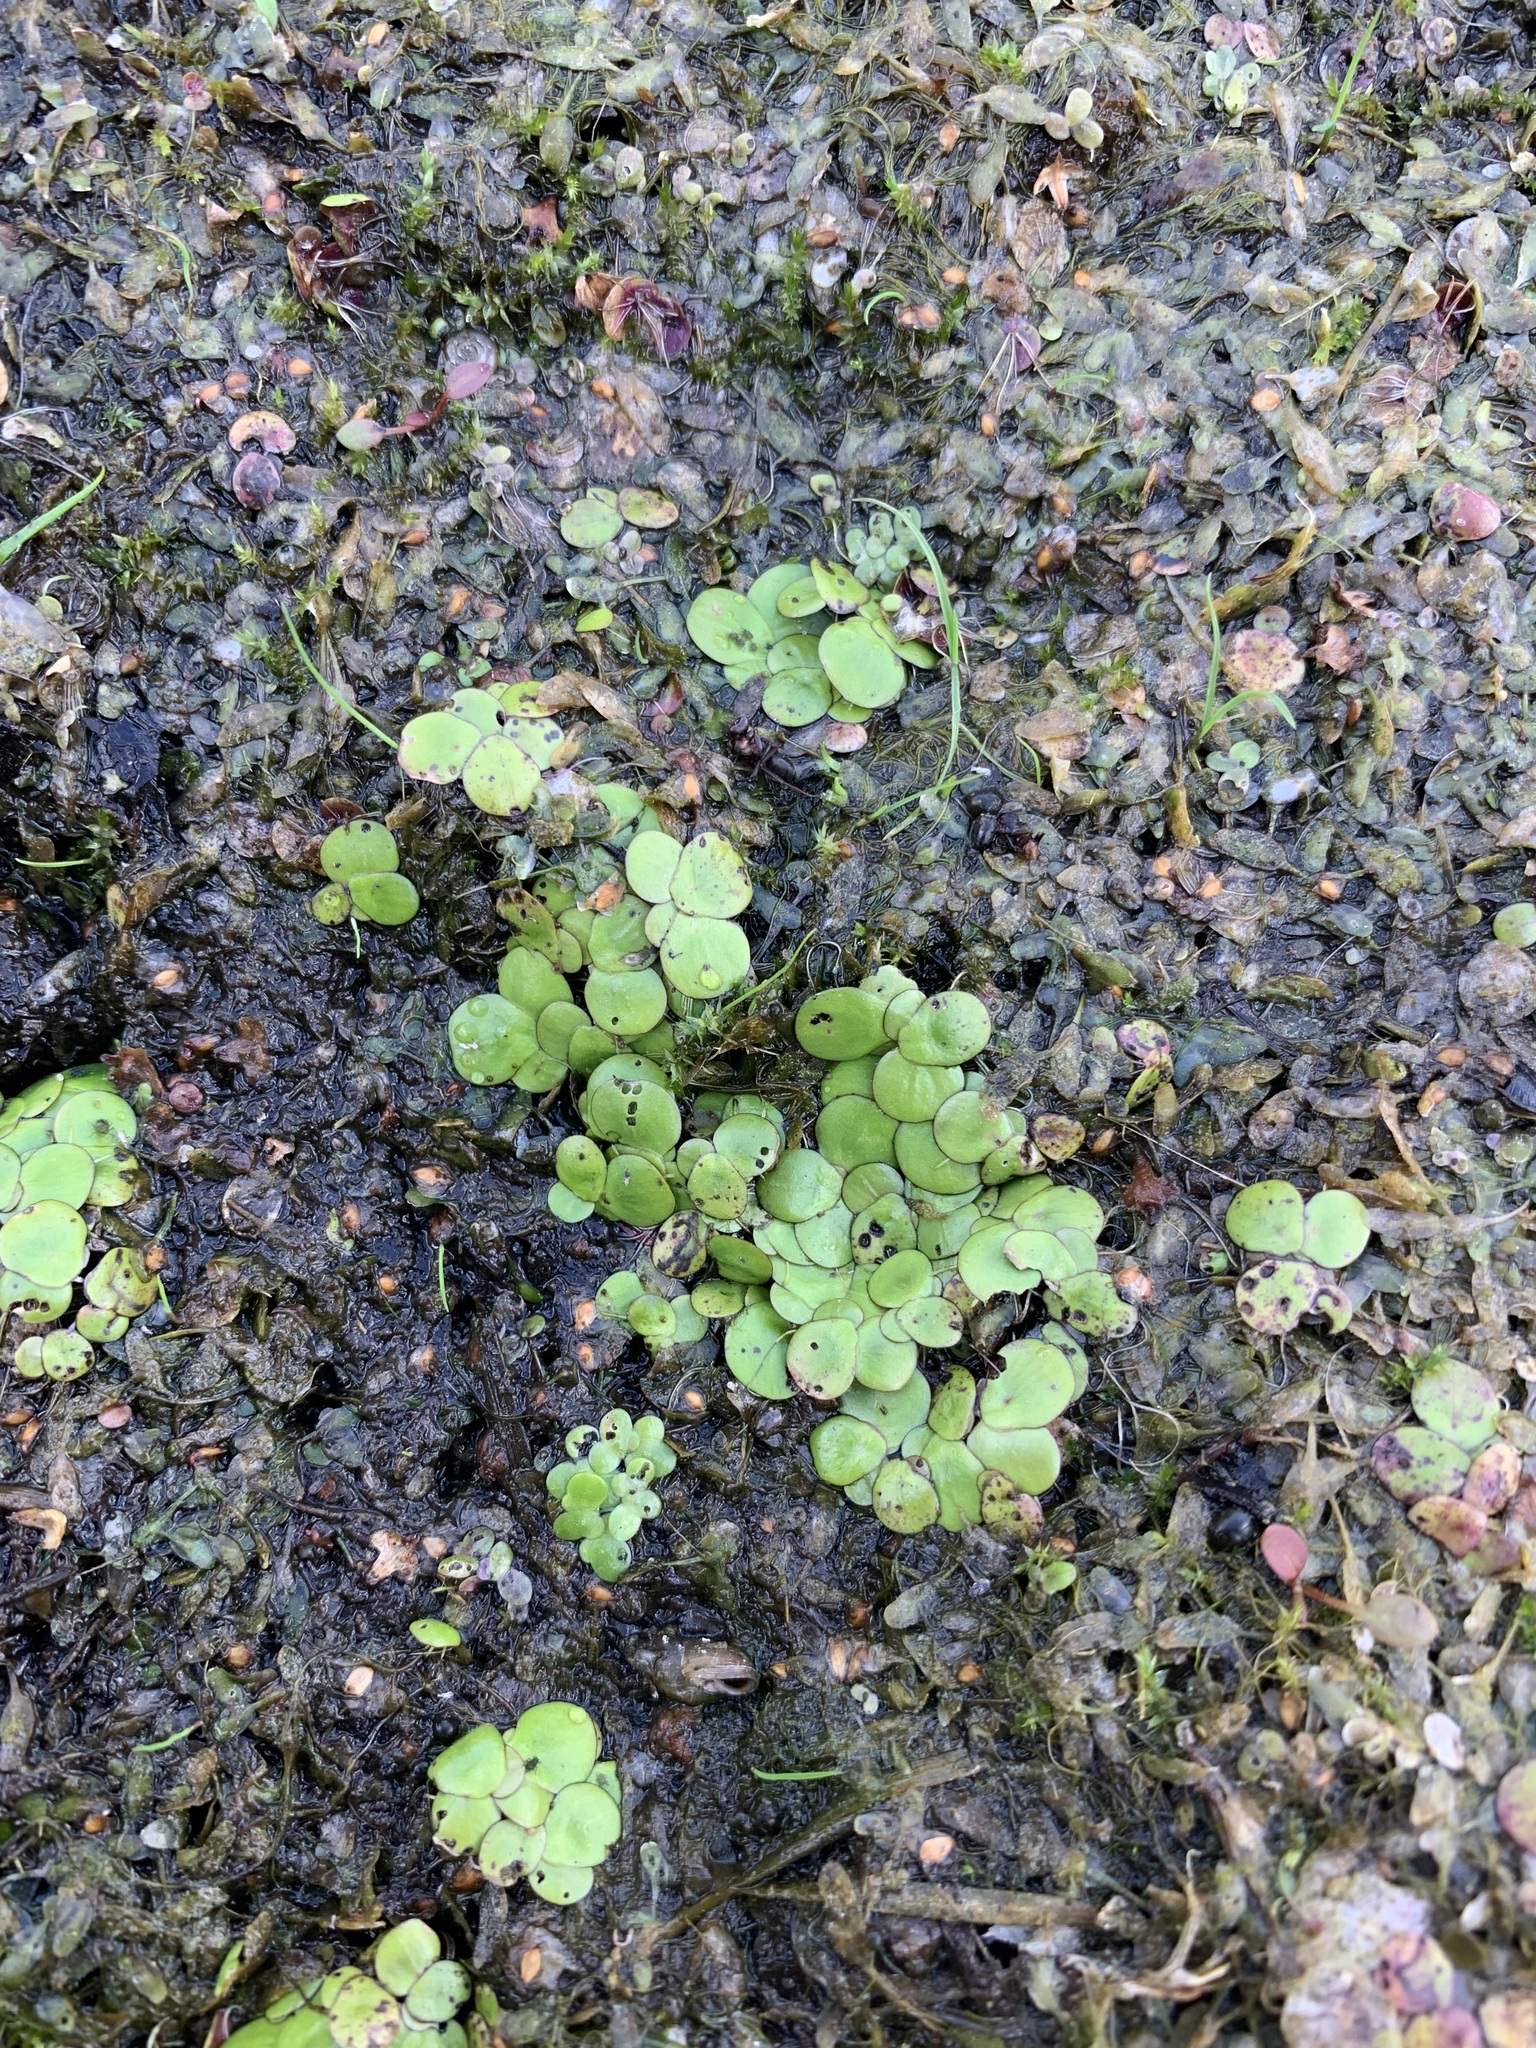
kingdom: Plantae
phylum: Tracheophyta
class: Liliopsida
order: Alismatales
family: Araceae
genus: Spirodela
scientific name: Spirodela polyrhiza
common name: Great duckweed
